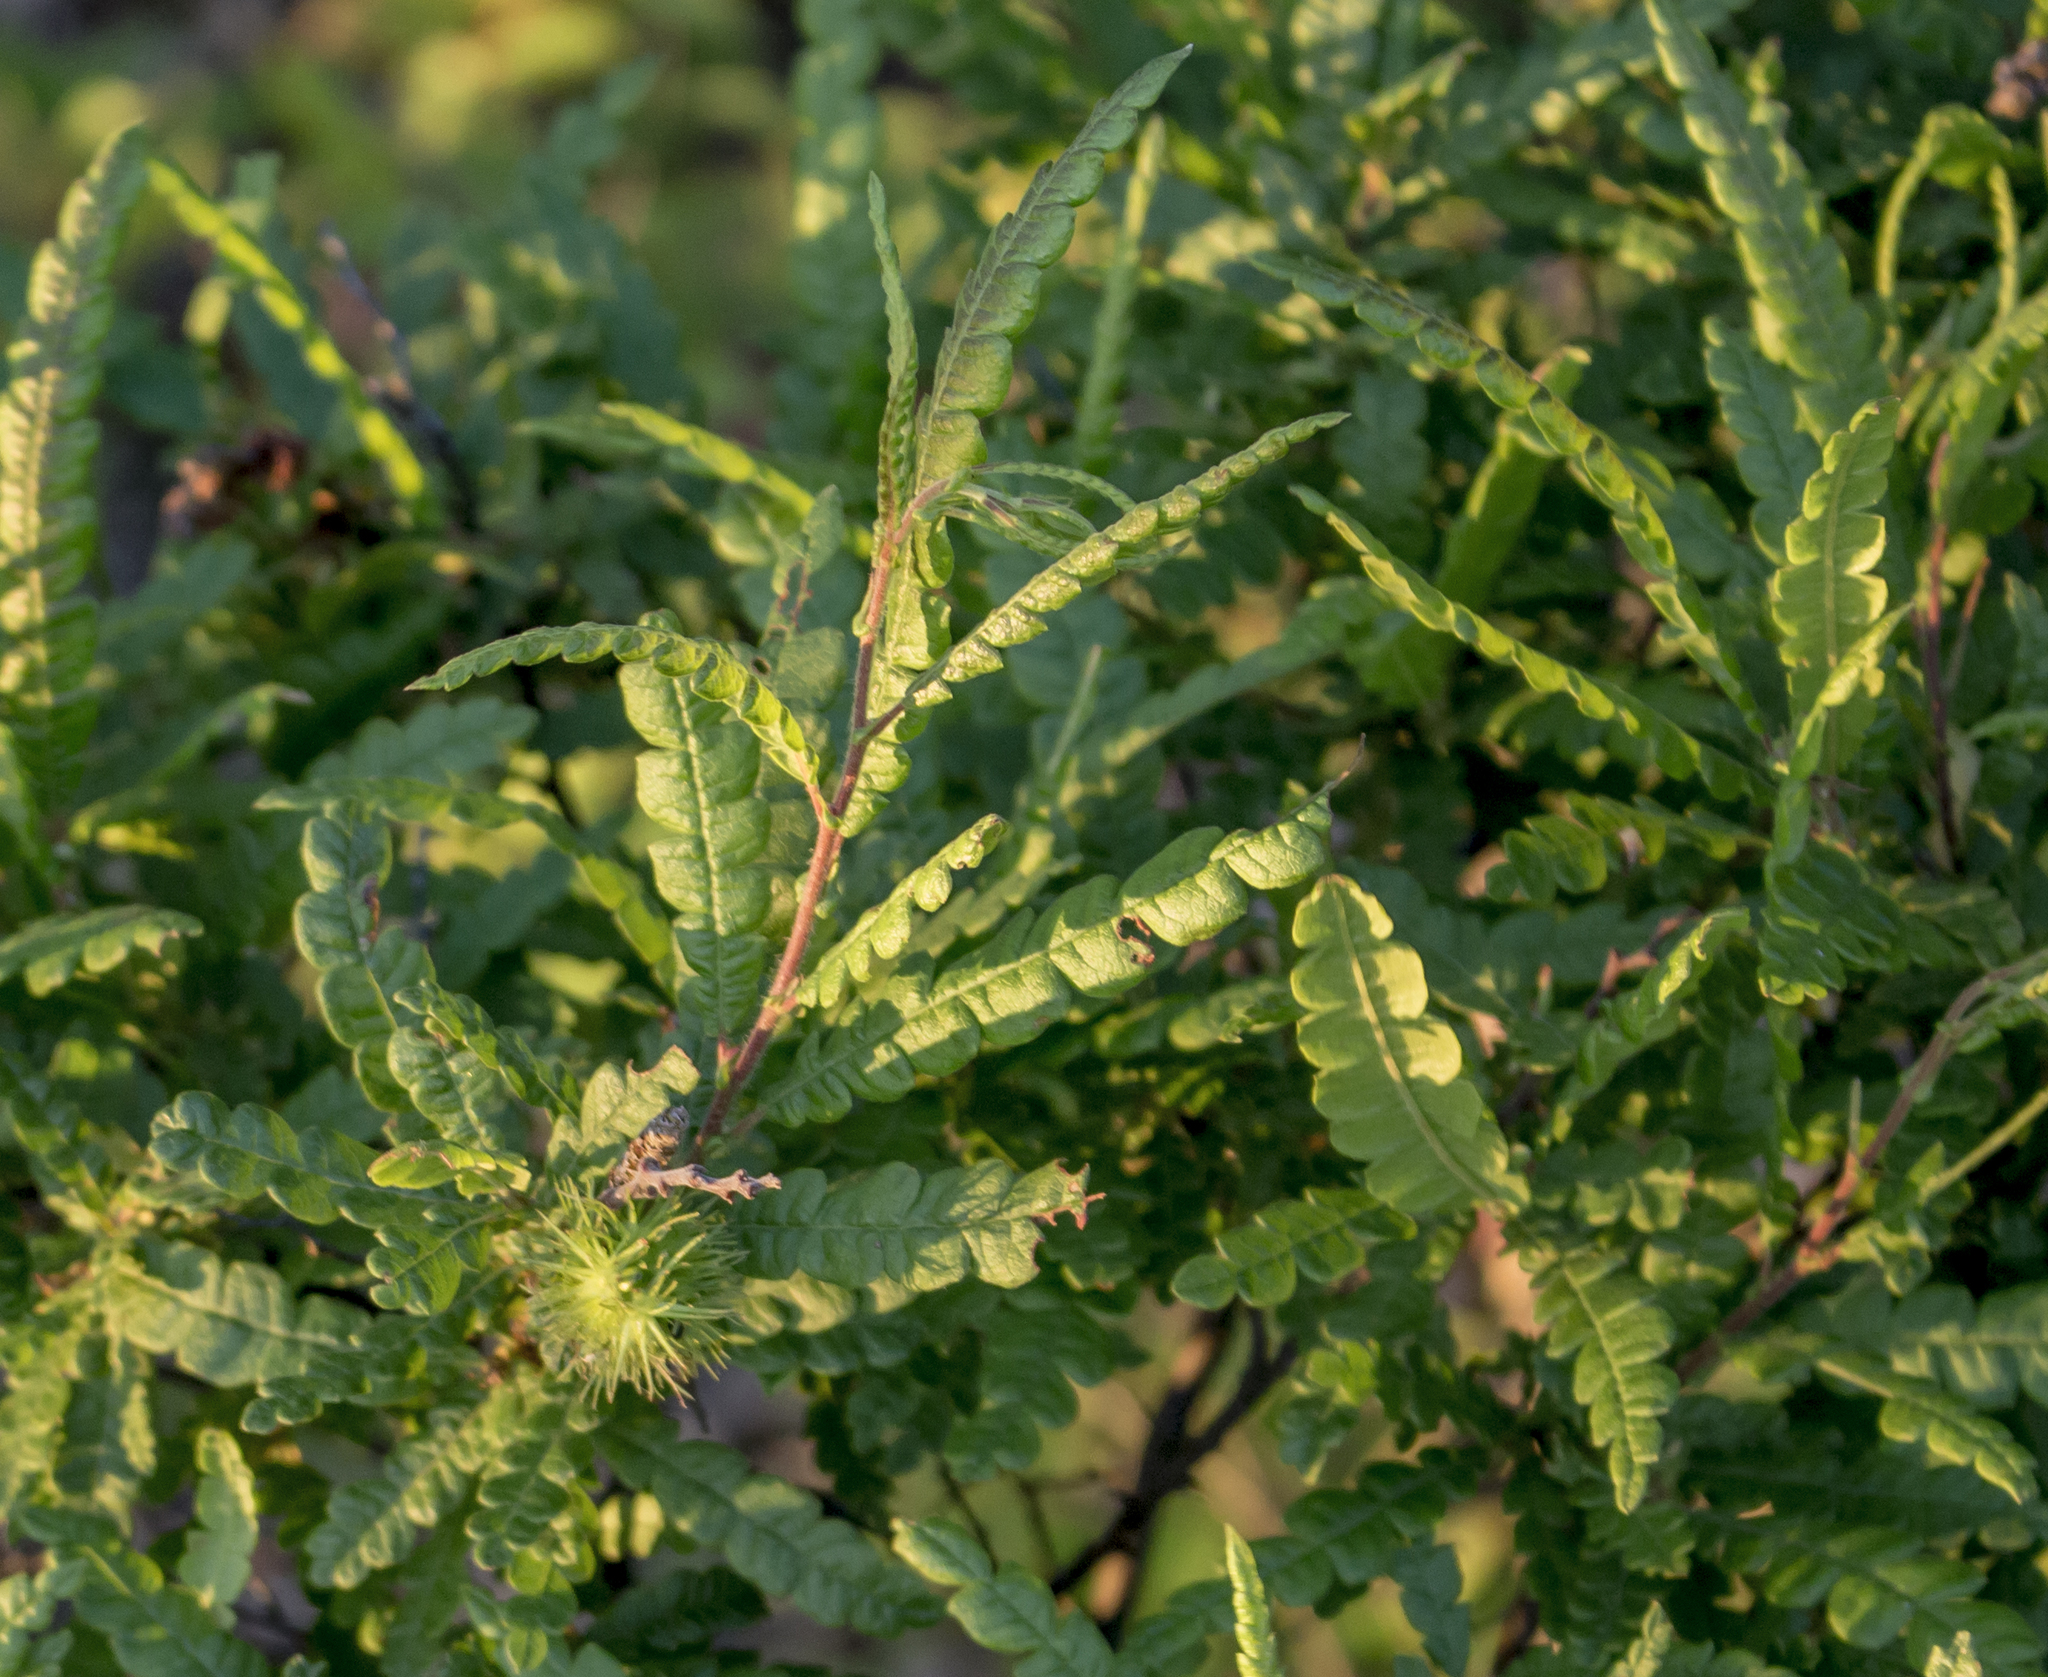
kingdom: Plantae
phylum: Tracheophyta
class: Magnoliopsida
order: Fagales
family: Myricaceae
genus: Comptonia
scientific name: Comptonia peregrina
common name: Sweet-fern
